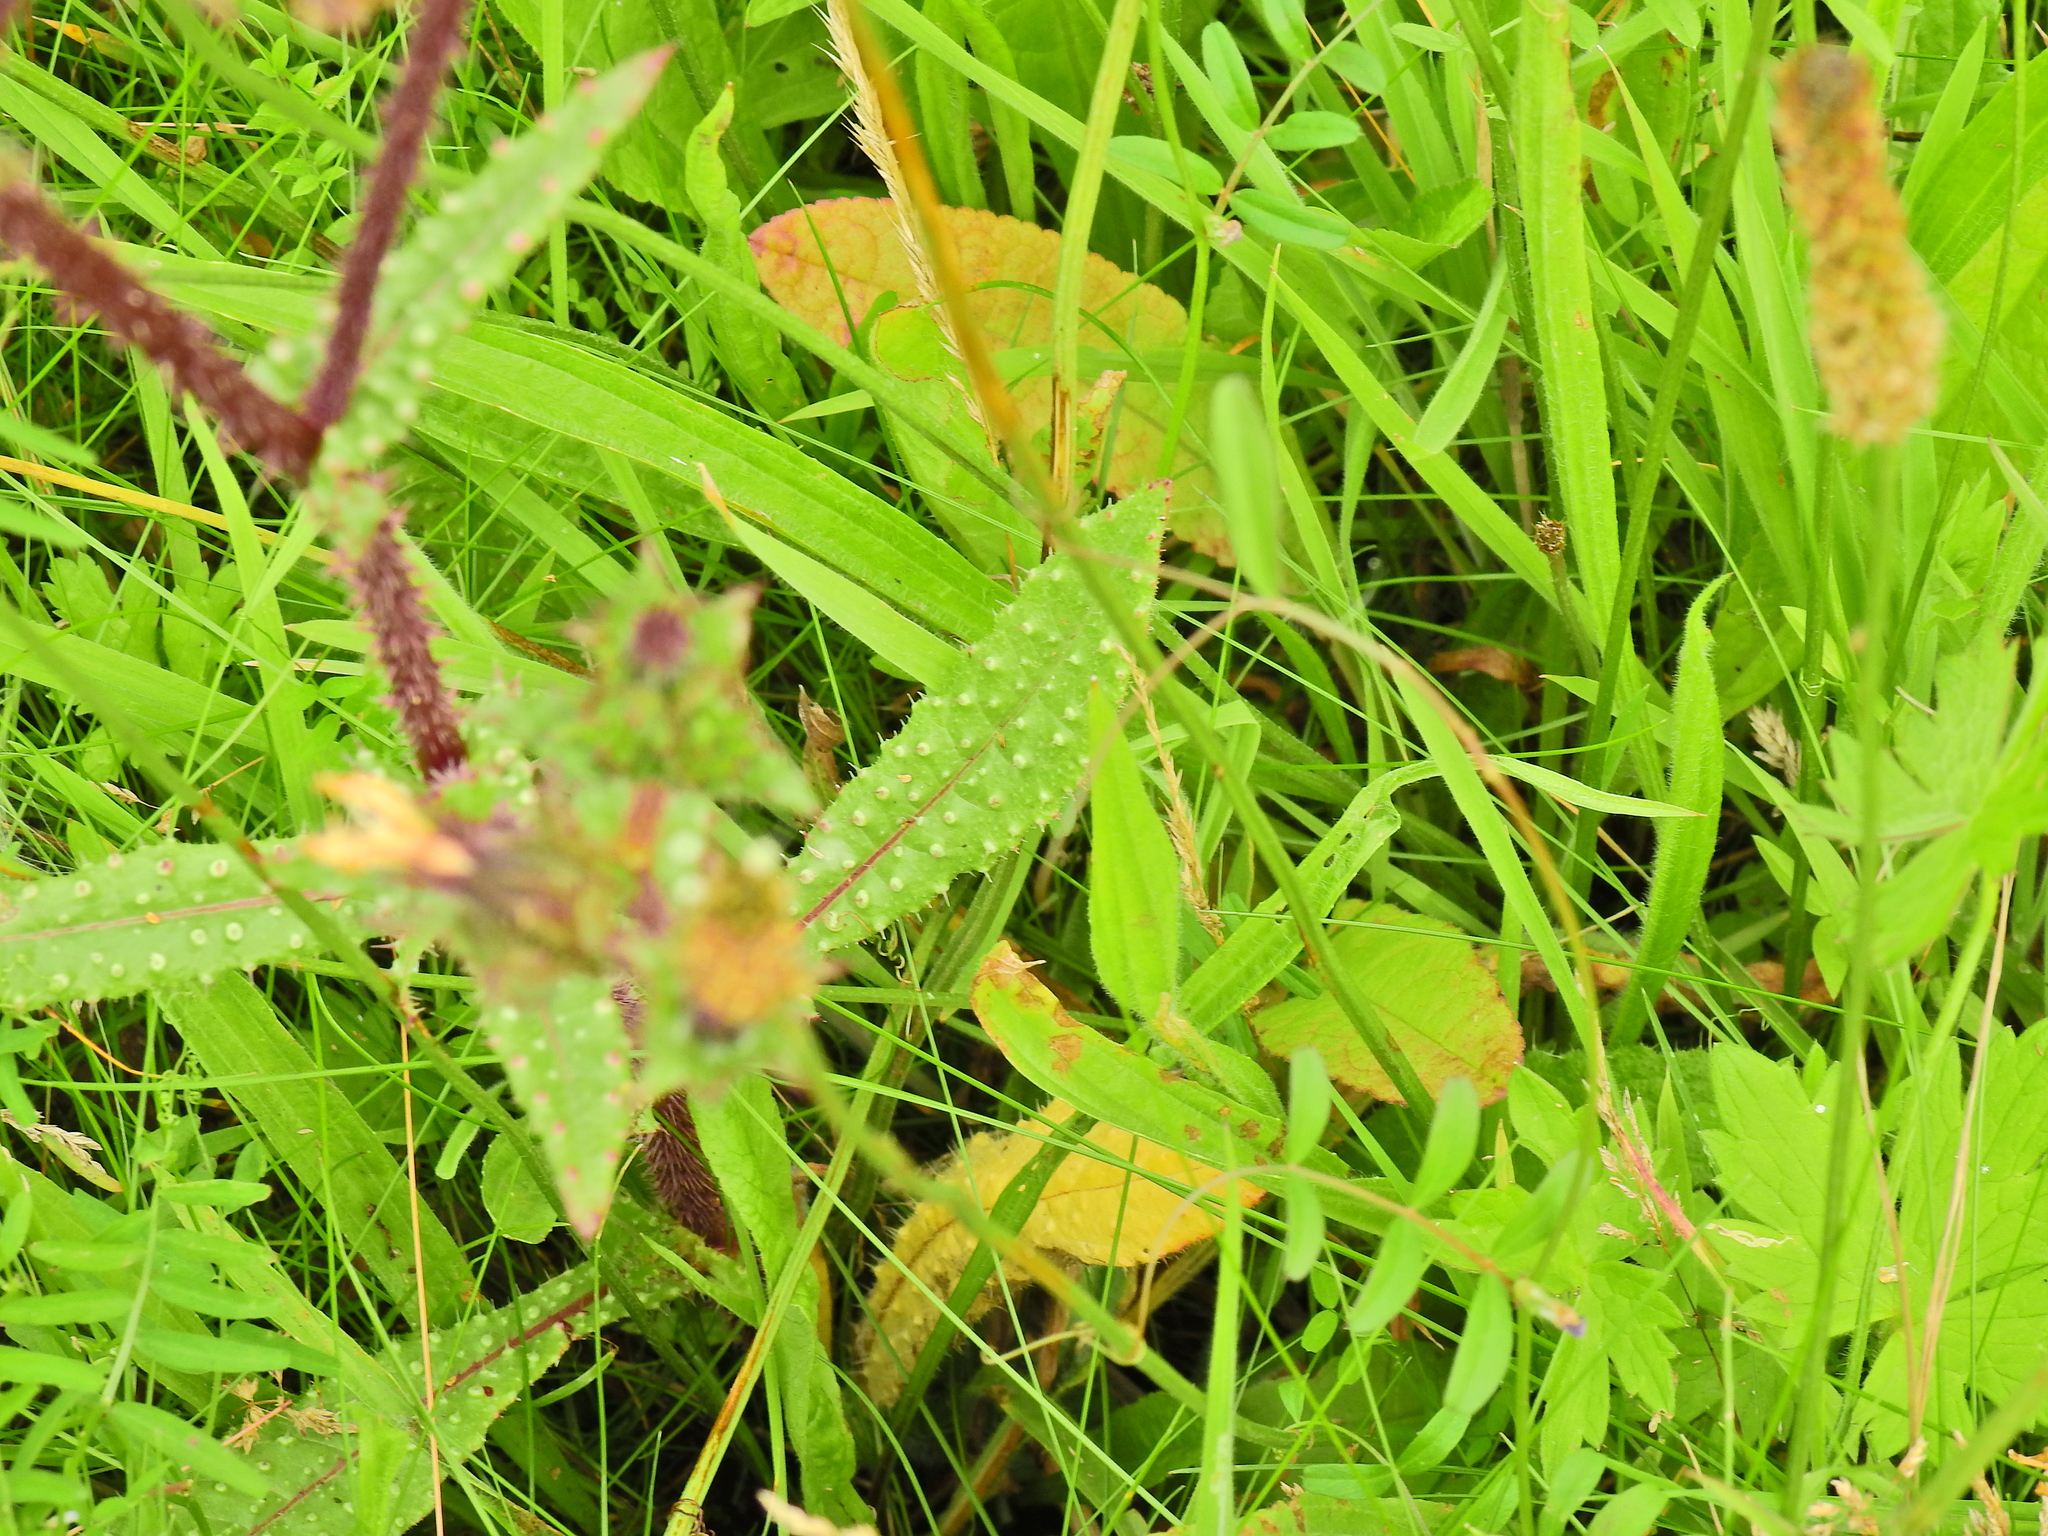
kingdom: Plantae
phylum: Tracheophyta
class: Magnoliopsida
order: Asterales
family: Asteraceae
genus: Helminthotheca
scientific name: Helminthotheca echioides
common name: Ox-tongue
